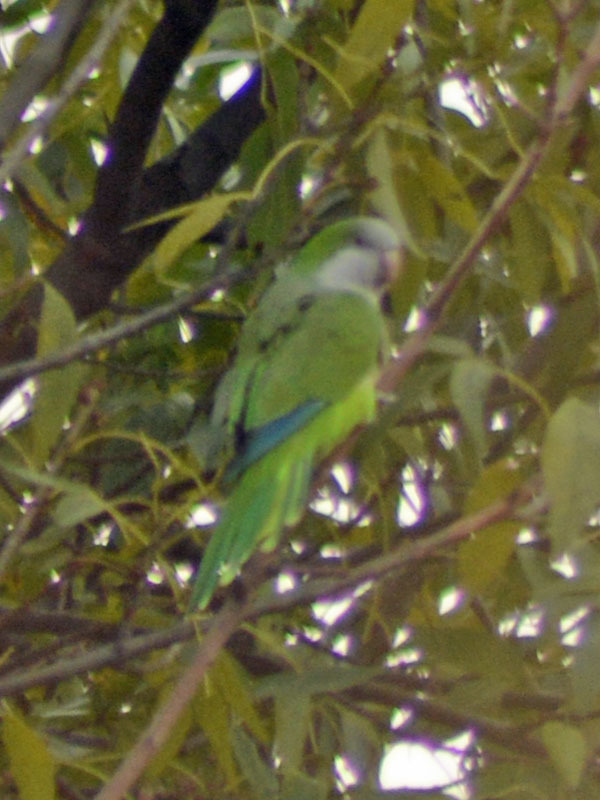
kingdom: Animalia
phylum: Chordata
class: Aves
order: Psittaciformes
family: Psittacidae
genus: Myiopsitta
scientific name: Myiopsitta monachus
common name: Monk parakeet
